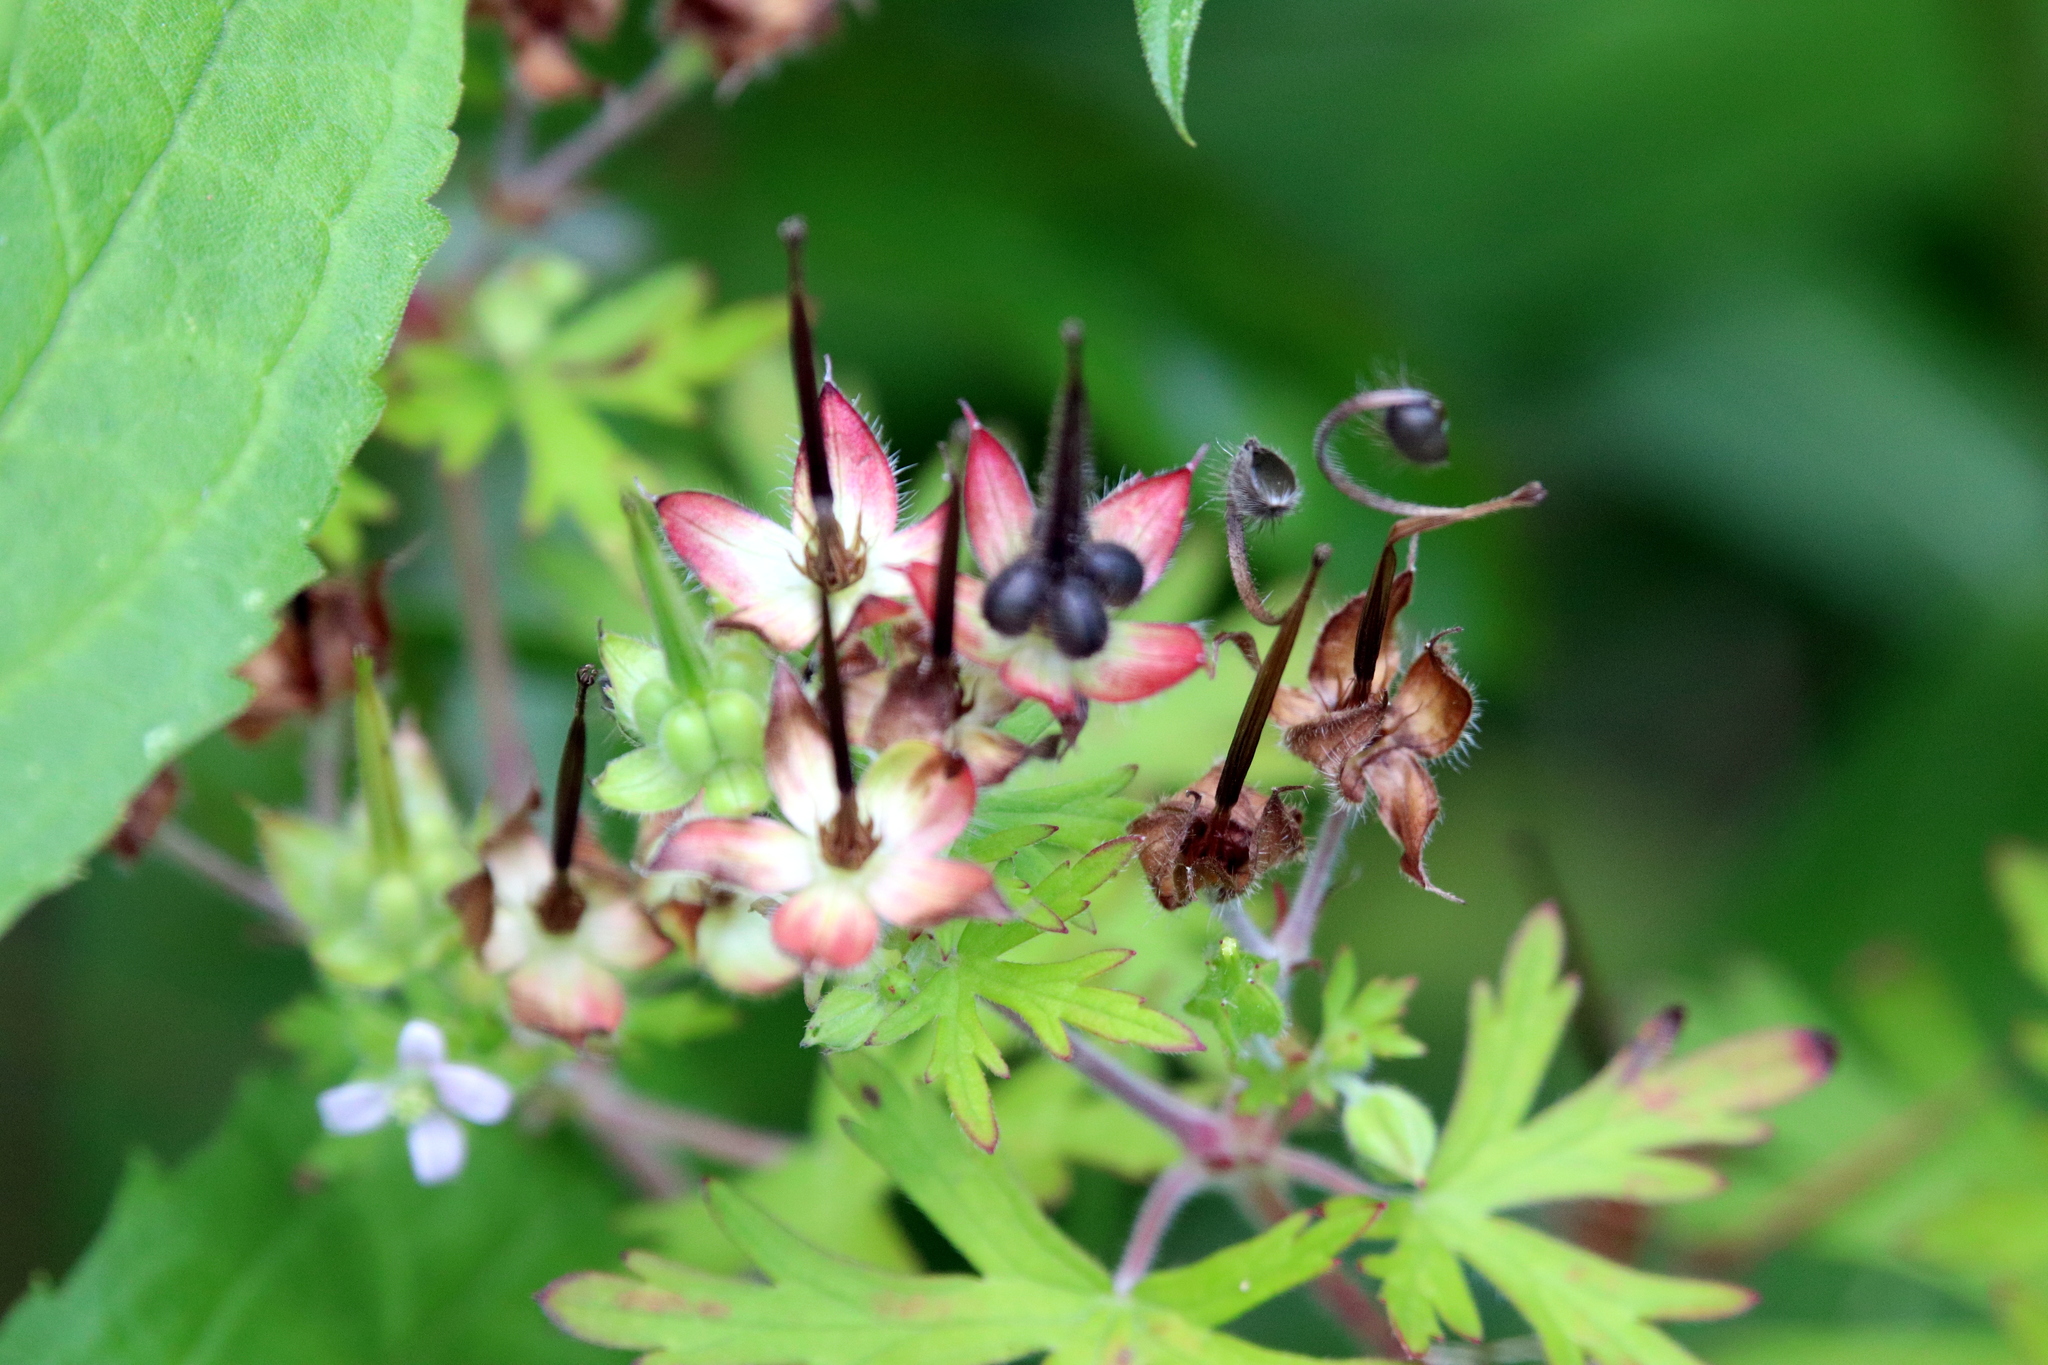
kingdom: Plantae
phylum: Tracheophyta
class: Magnoliopsida
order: Geraniales
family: Geraniaceae
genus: Geranium
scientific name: Geranium carolinianum
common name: Carolina crane's-bill
